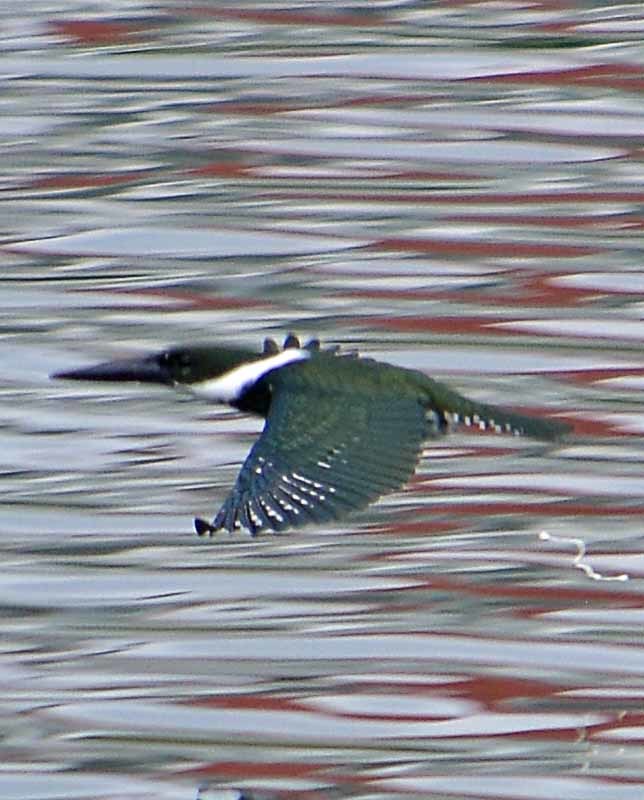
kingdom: Animalia
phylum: Chordata
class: Aves
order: Coraciiformes
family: Alcedinidae
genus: Chloroceryle
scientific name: Chloroceryle amazona
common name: Amazon kingfisher
